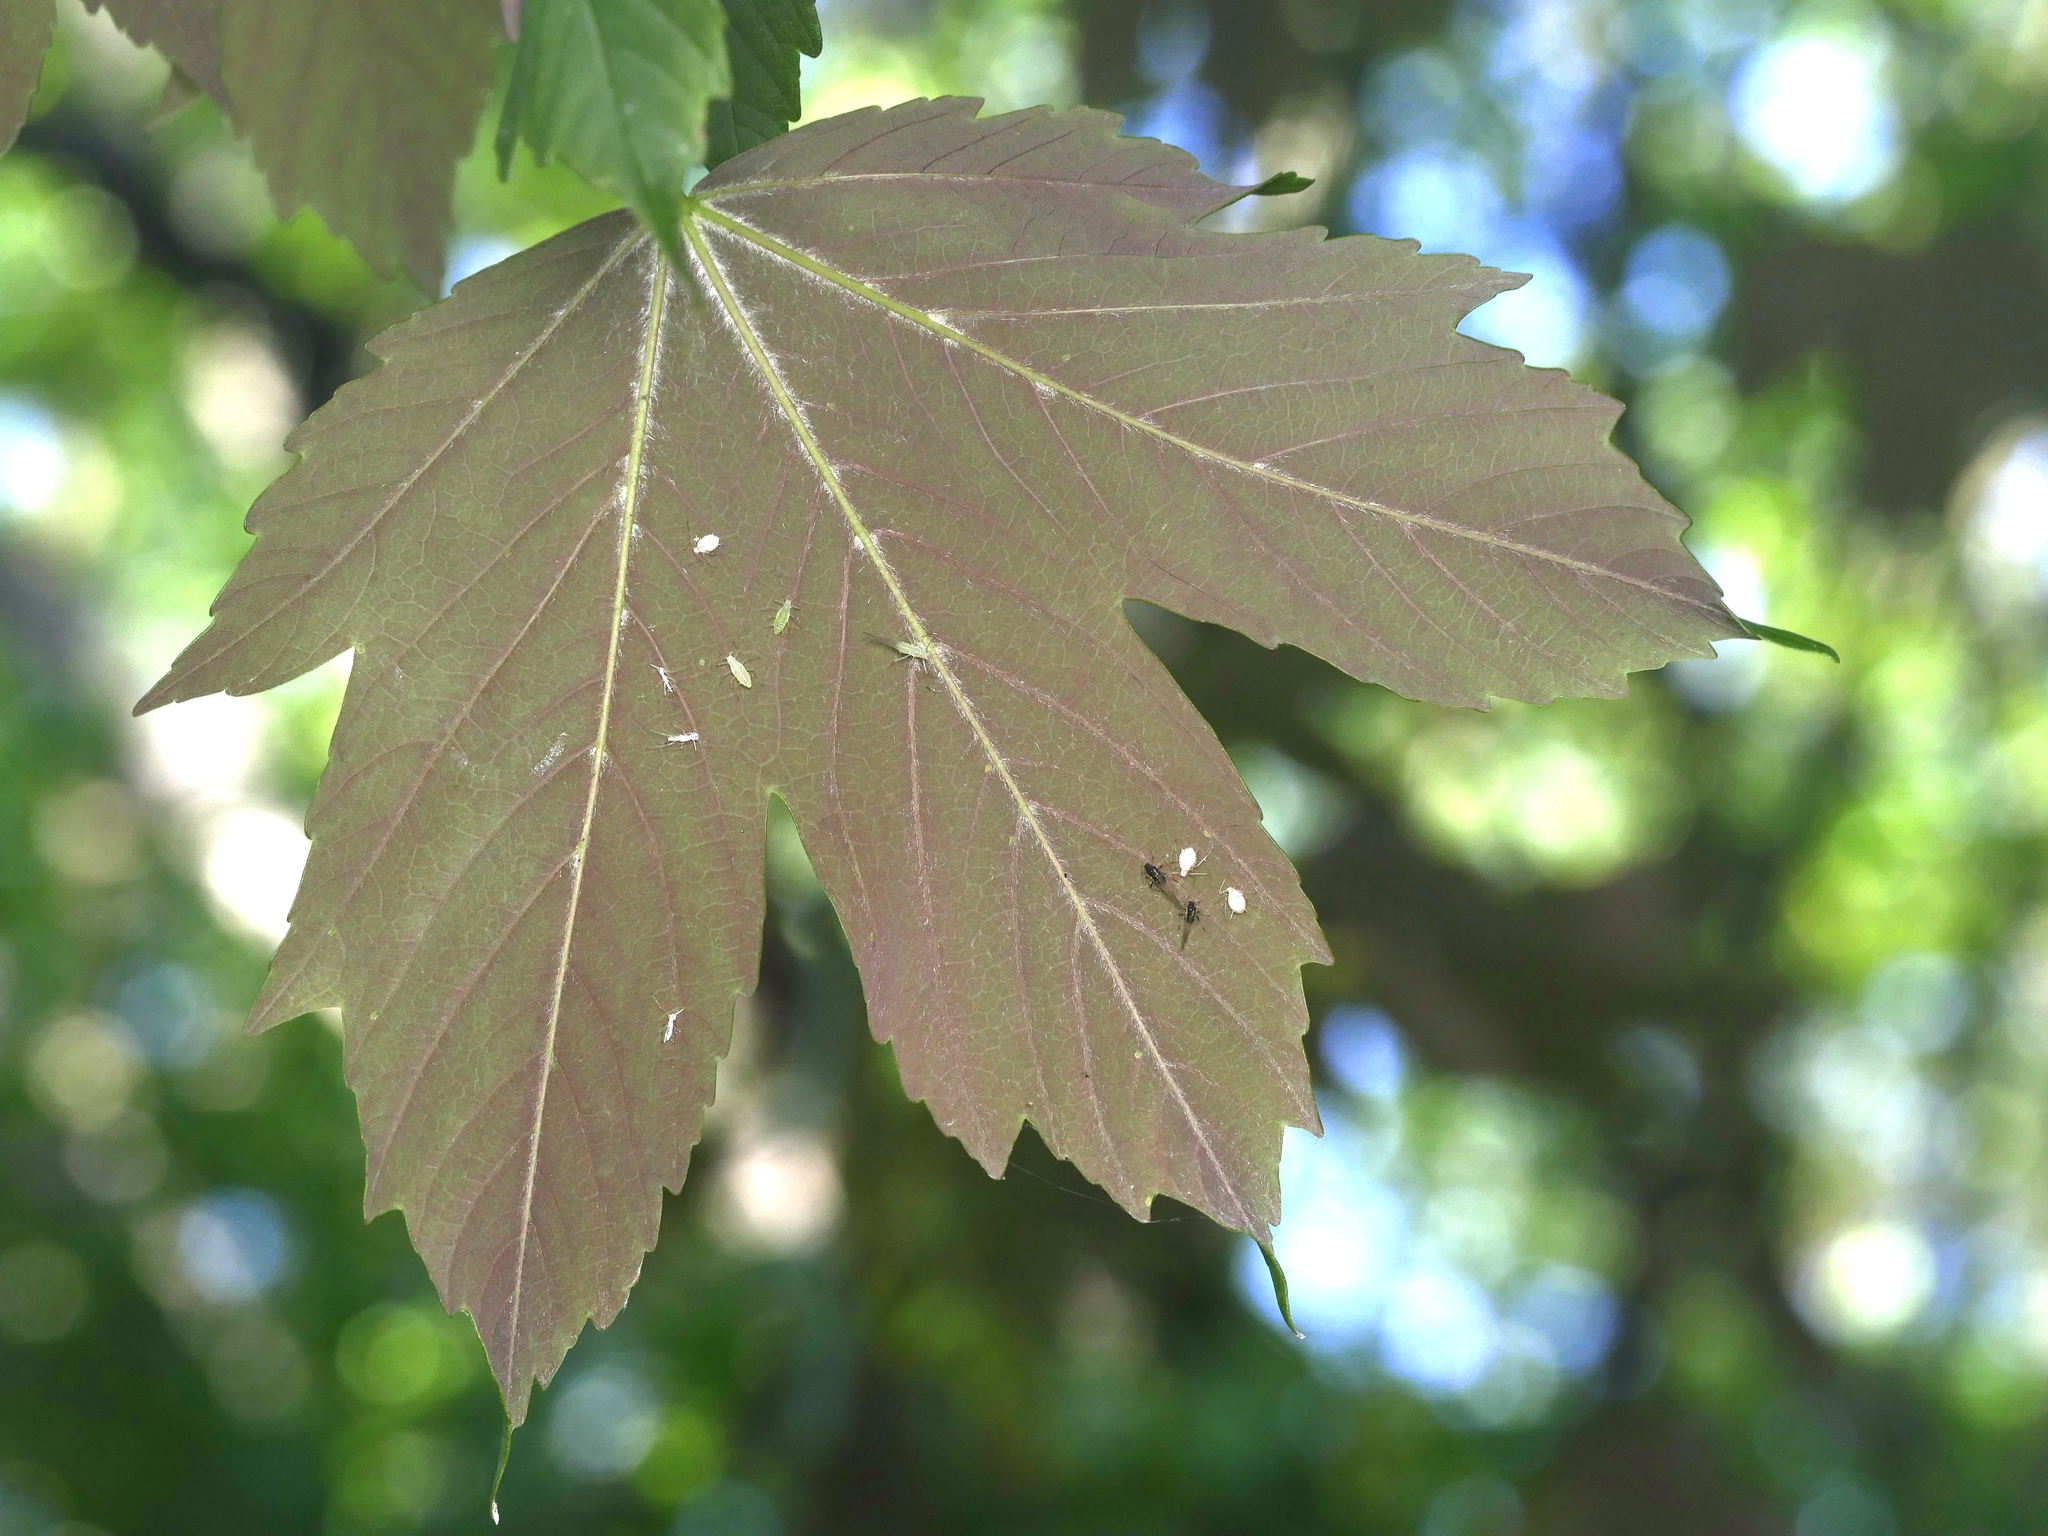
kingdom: Plantae
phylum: Tracheophyta
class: Magnoliopsida
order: Sapindales
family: Sapindaceae
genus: Acer
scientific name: Acer pseudoplatanus
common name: Sycamore
